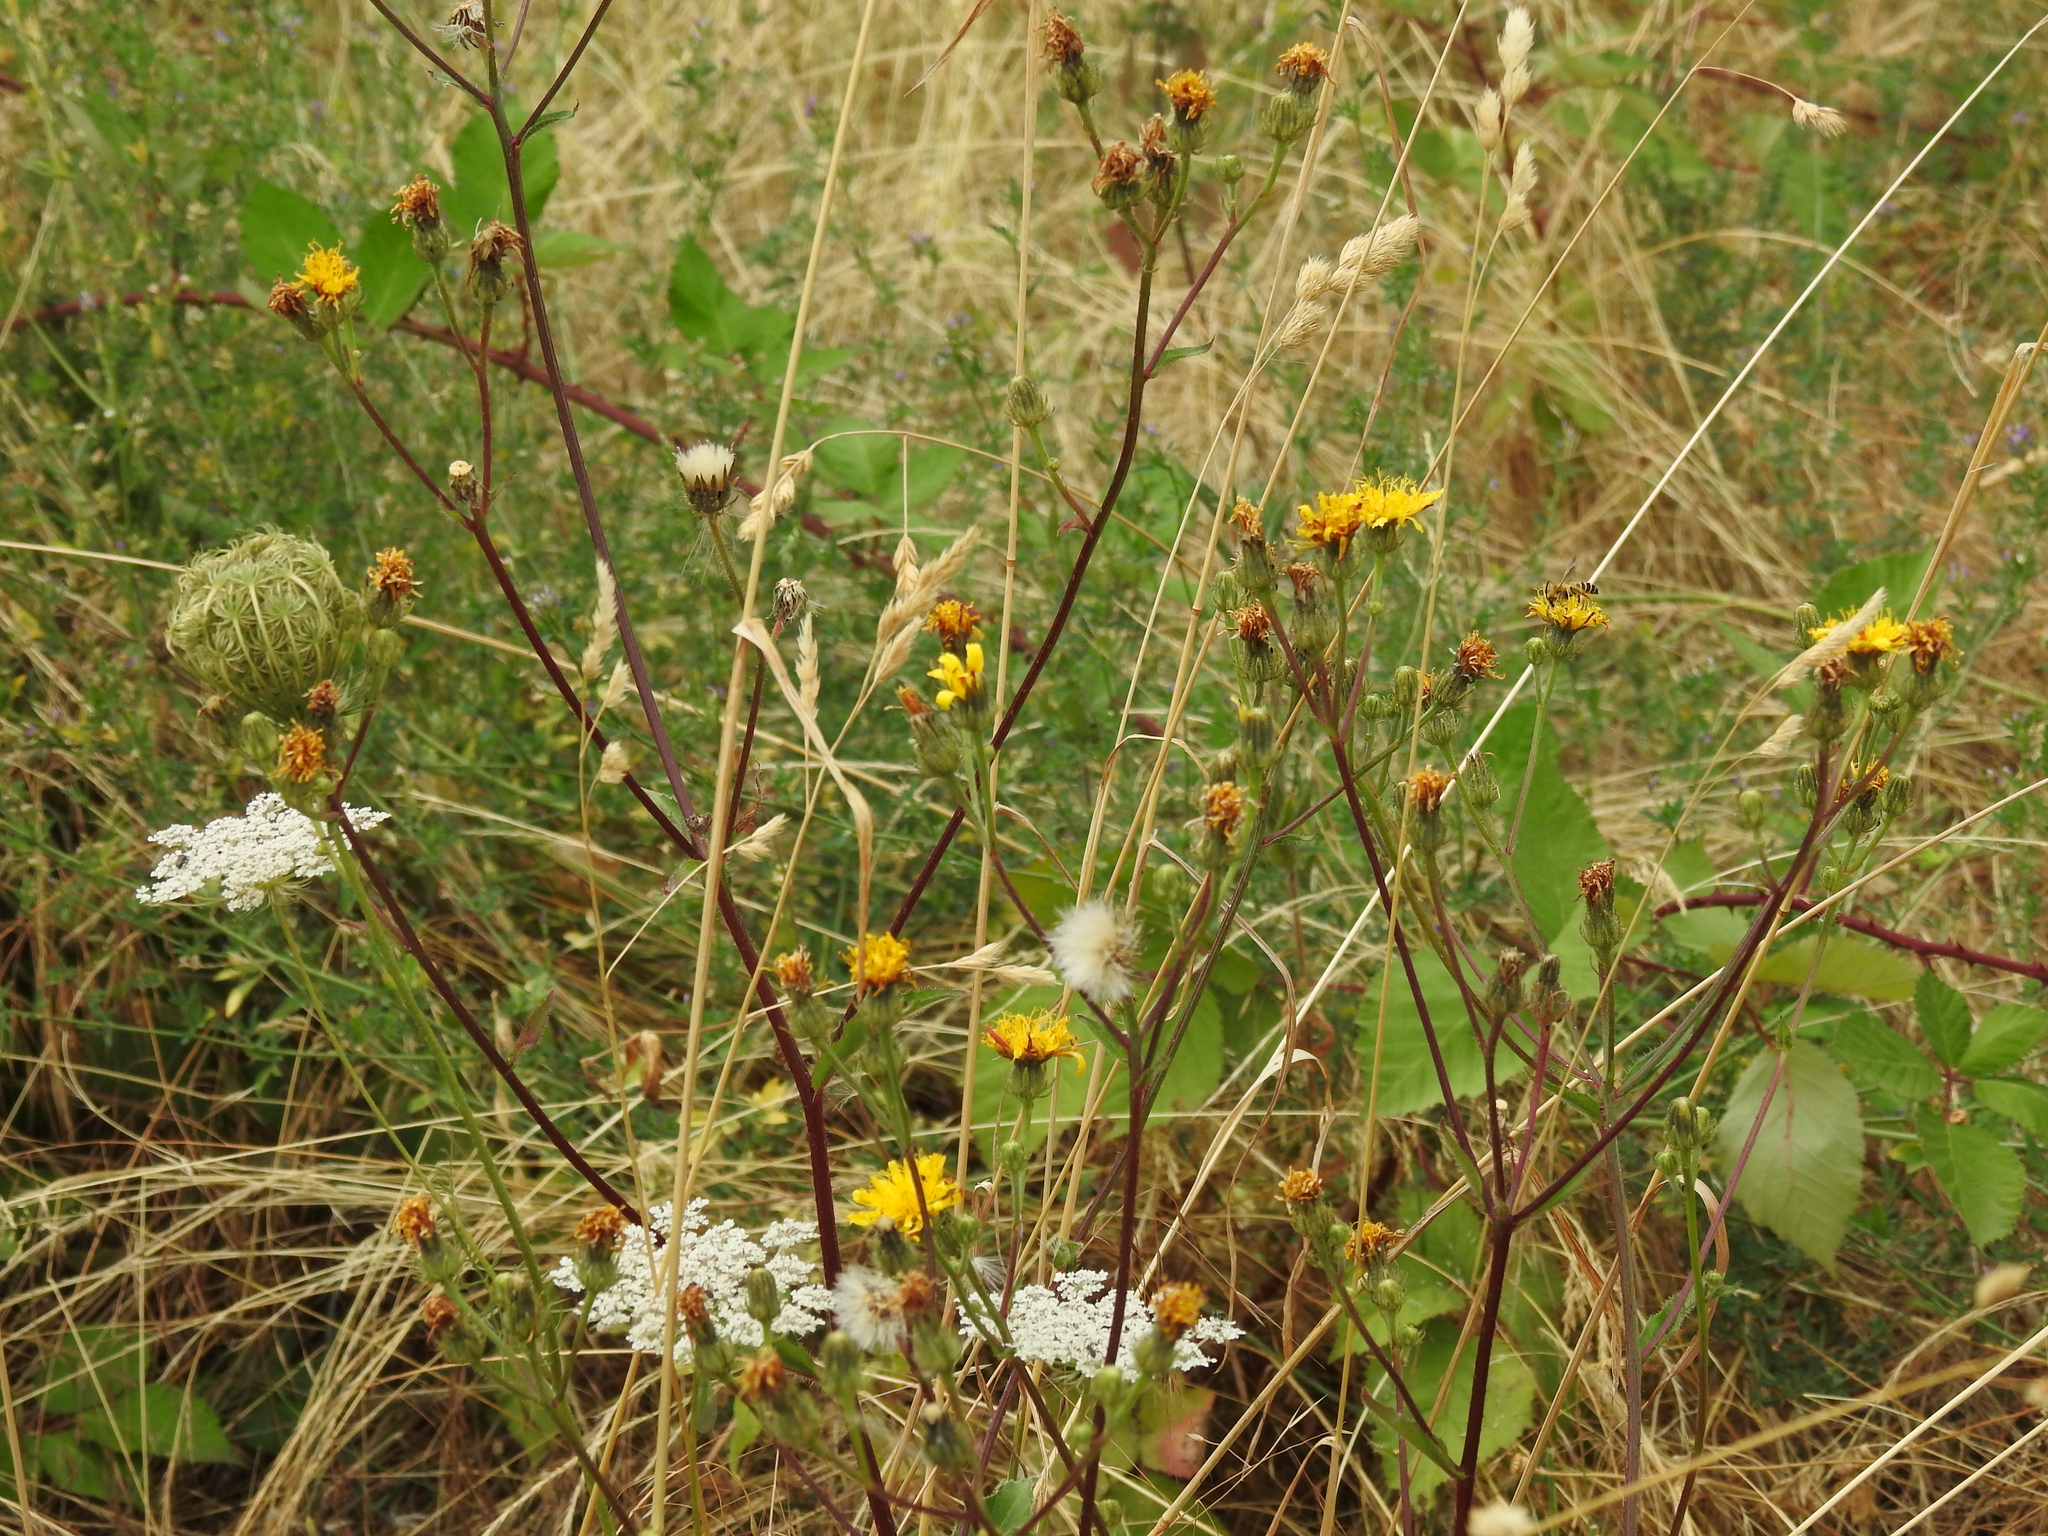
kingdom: Plantae
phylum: Tracheophyta
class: Magnoliopsida
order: Asterales
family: Asteraceae
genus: Picris
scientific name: Picris hieracioides
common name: Hawkweed oxtongue
